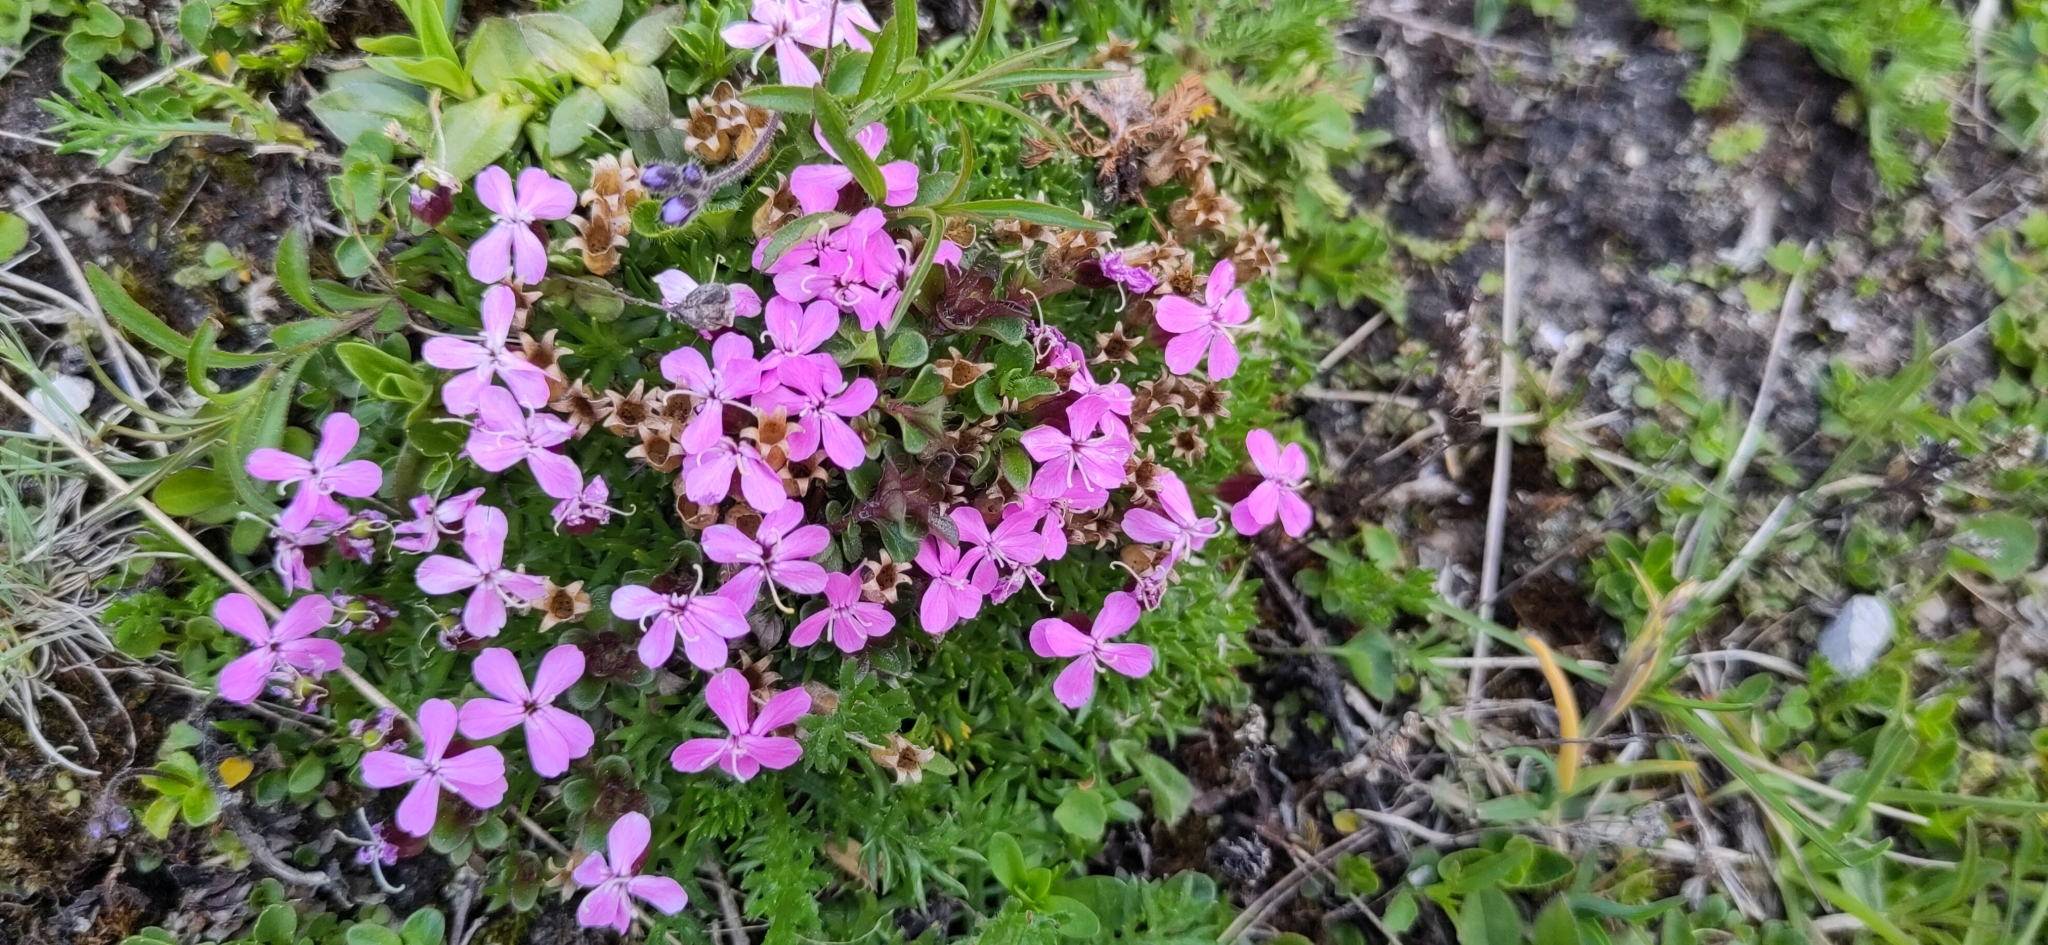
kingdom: Plantae
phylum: Tracheophyta
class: Magnoliopsida
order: Caryophyllales
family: Caryophyllaceae
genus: Silene
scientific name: Silene acaulis
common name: Moss campion
